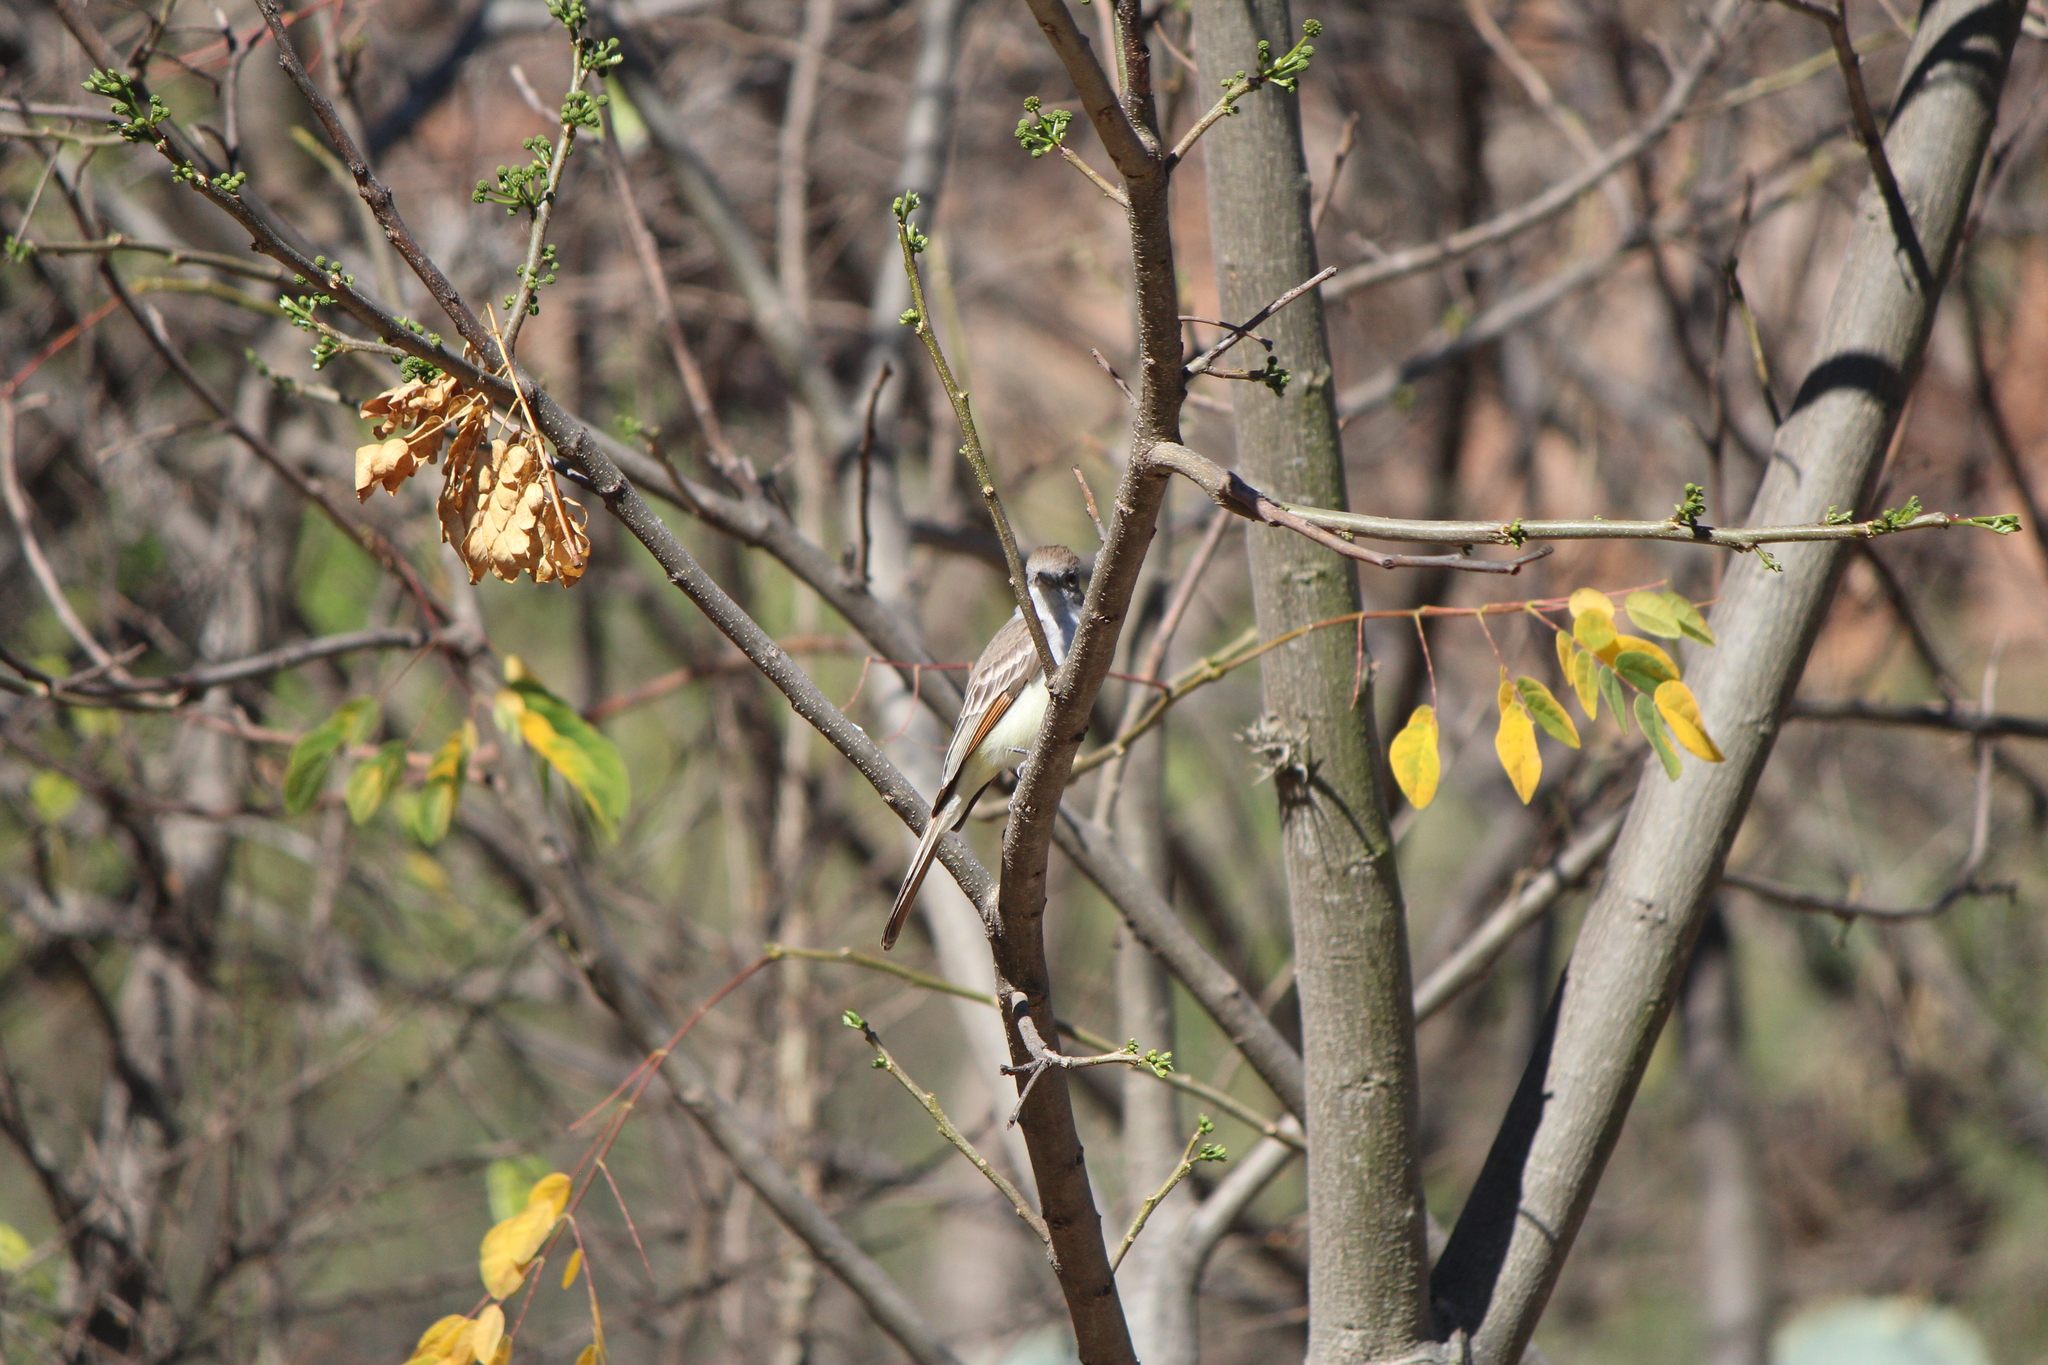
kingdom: Animalia
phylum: Chordata
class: Aves
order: Passeriformes
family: Tyrannidae
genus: Myiarchus
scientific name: Myiarchus cinerascens
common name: Ash-throated flycatcher
